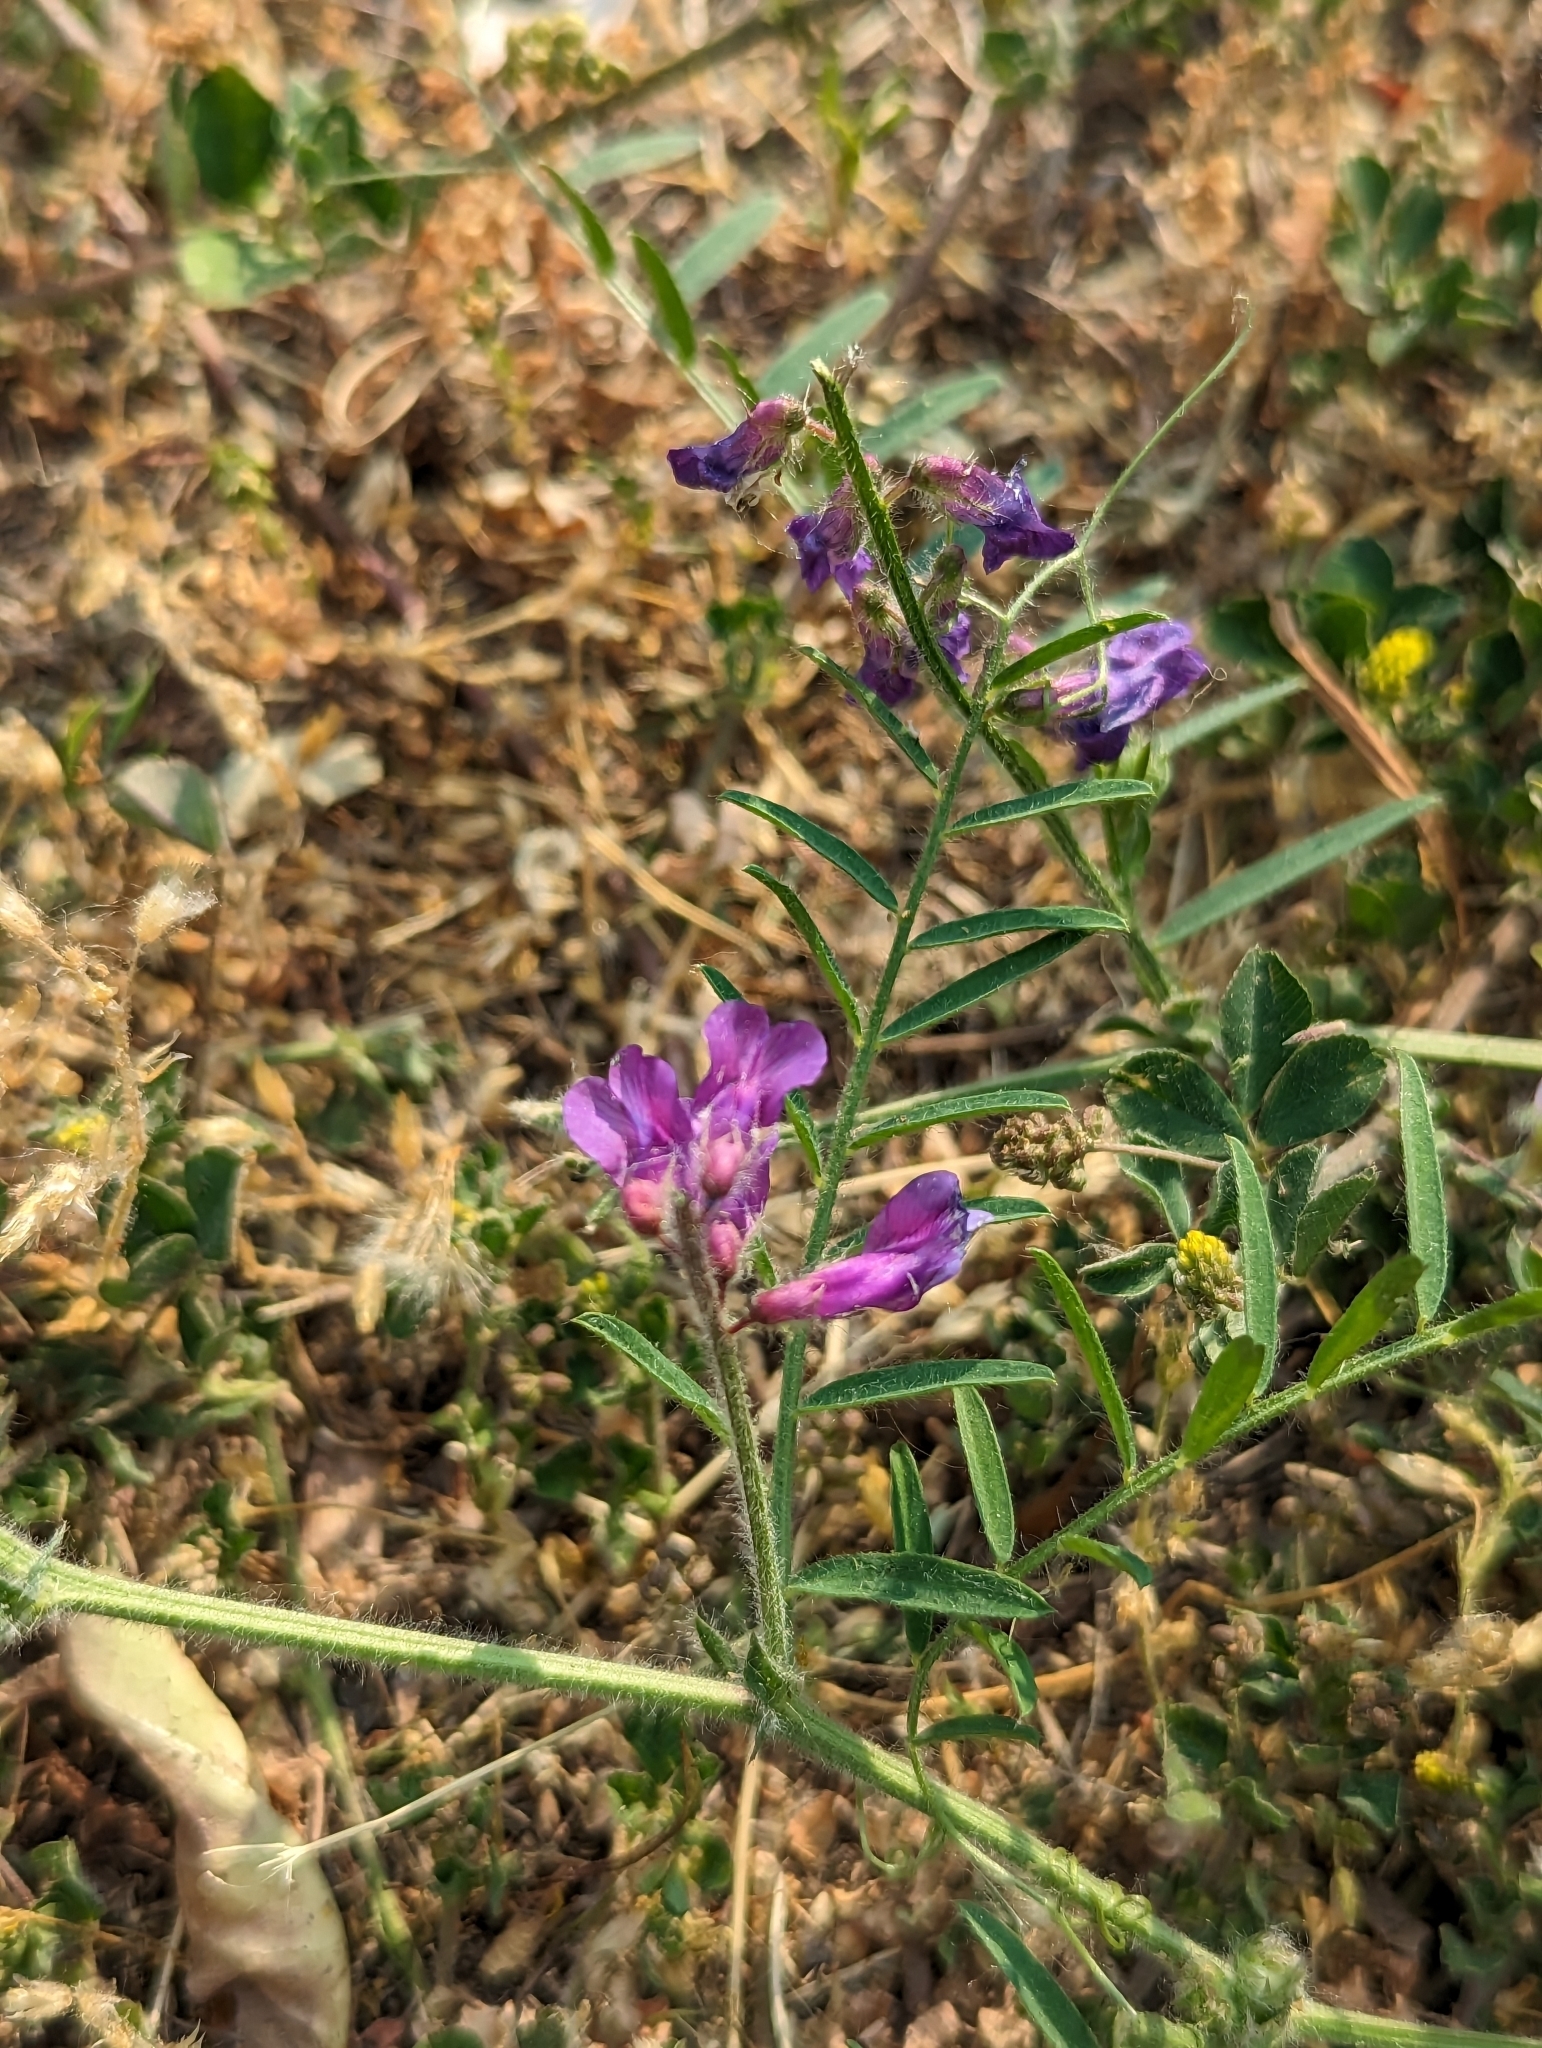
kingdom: Plantae
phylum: Tracheophyta
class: Magnoliopsida
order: Fabales
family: Fabaceae
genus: Vicia
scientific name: Vicia villosa
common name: Fodder vetch
